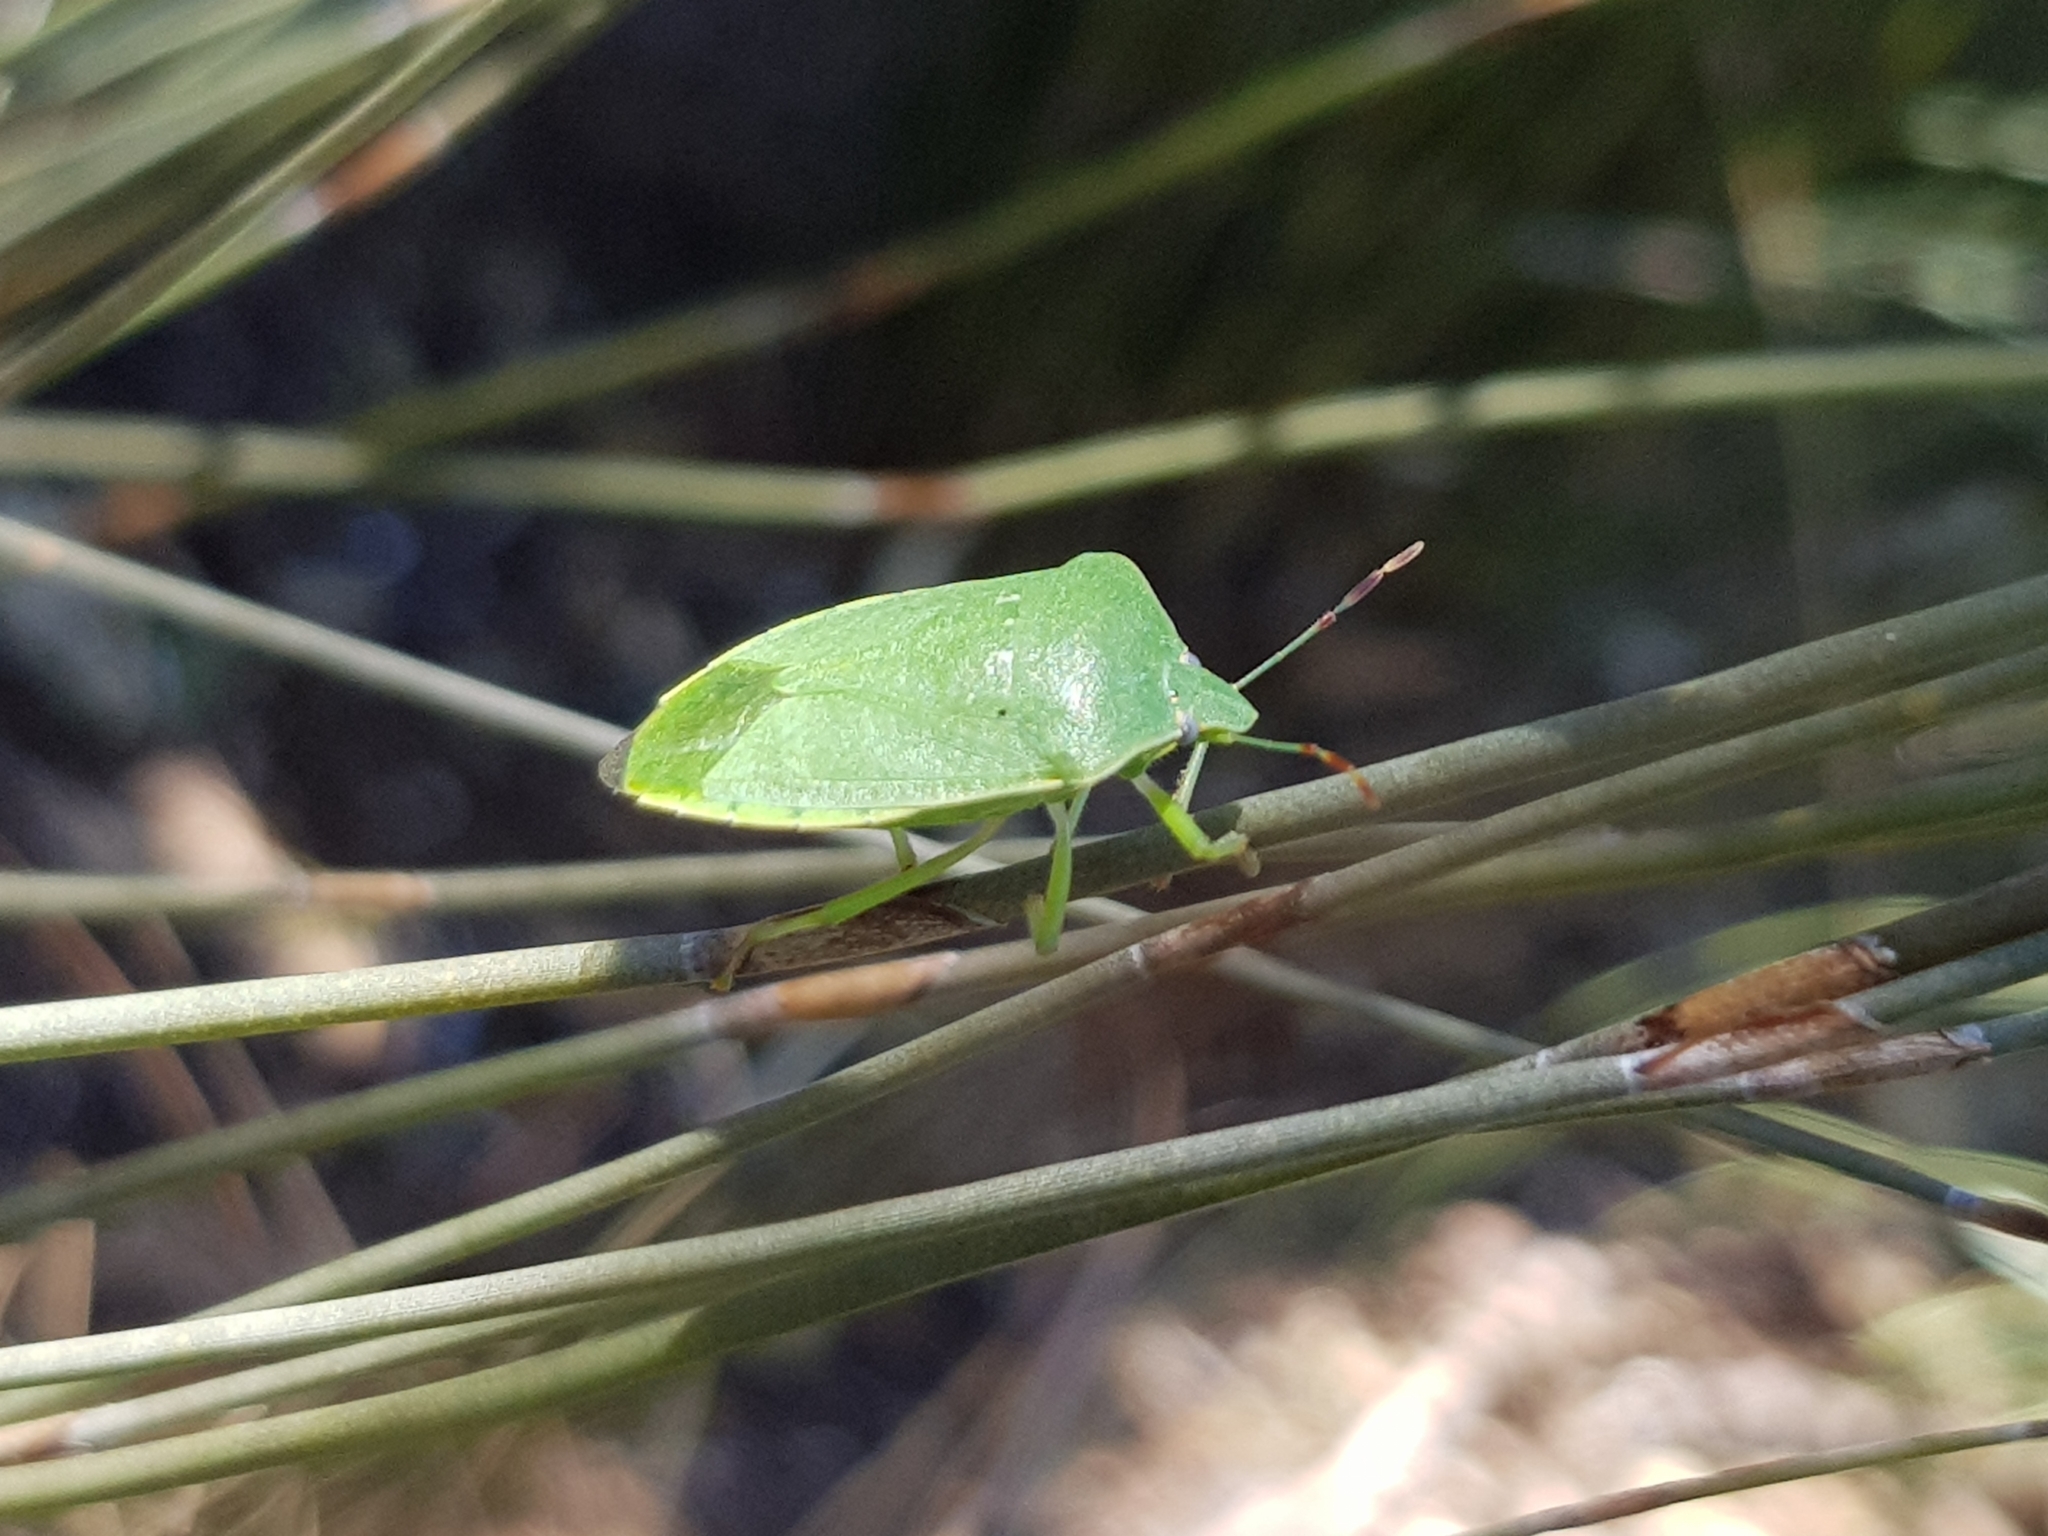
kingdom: Animalia
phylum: Arthropoda
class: Insecta
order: Hemiptera
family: Pentatomidae
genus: Nezara
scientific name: Nezara viridula
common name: Southern green stink bug
